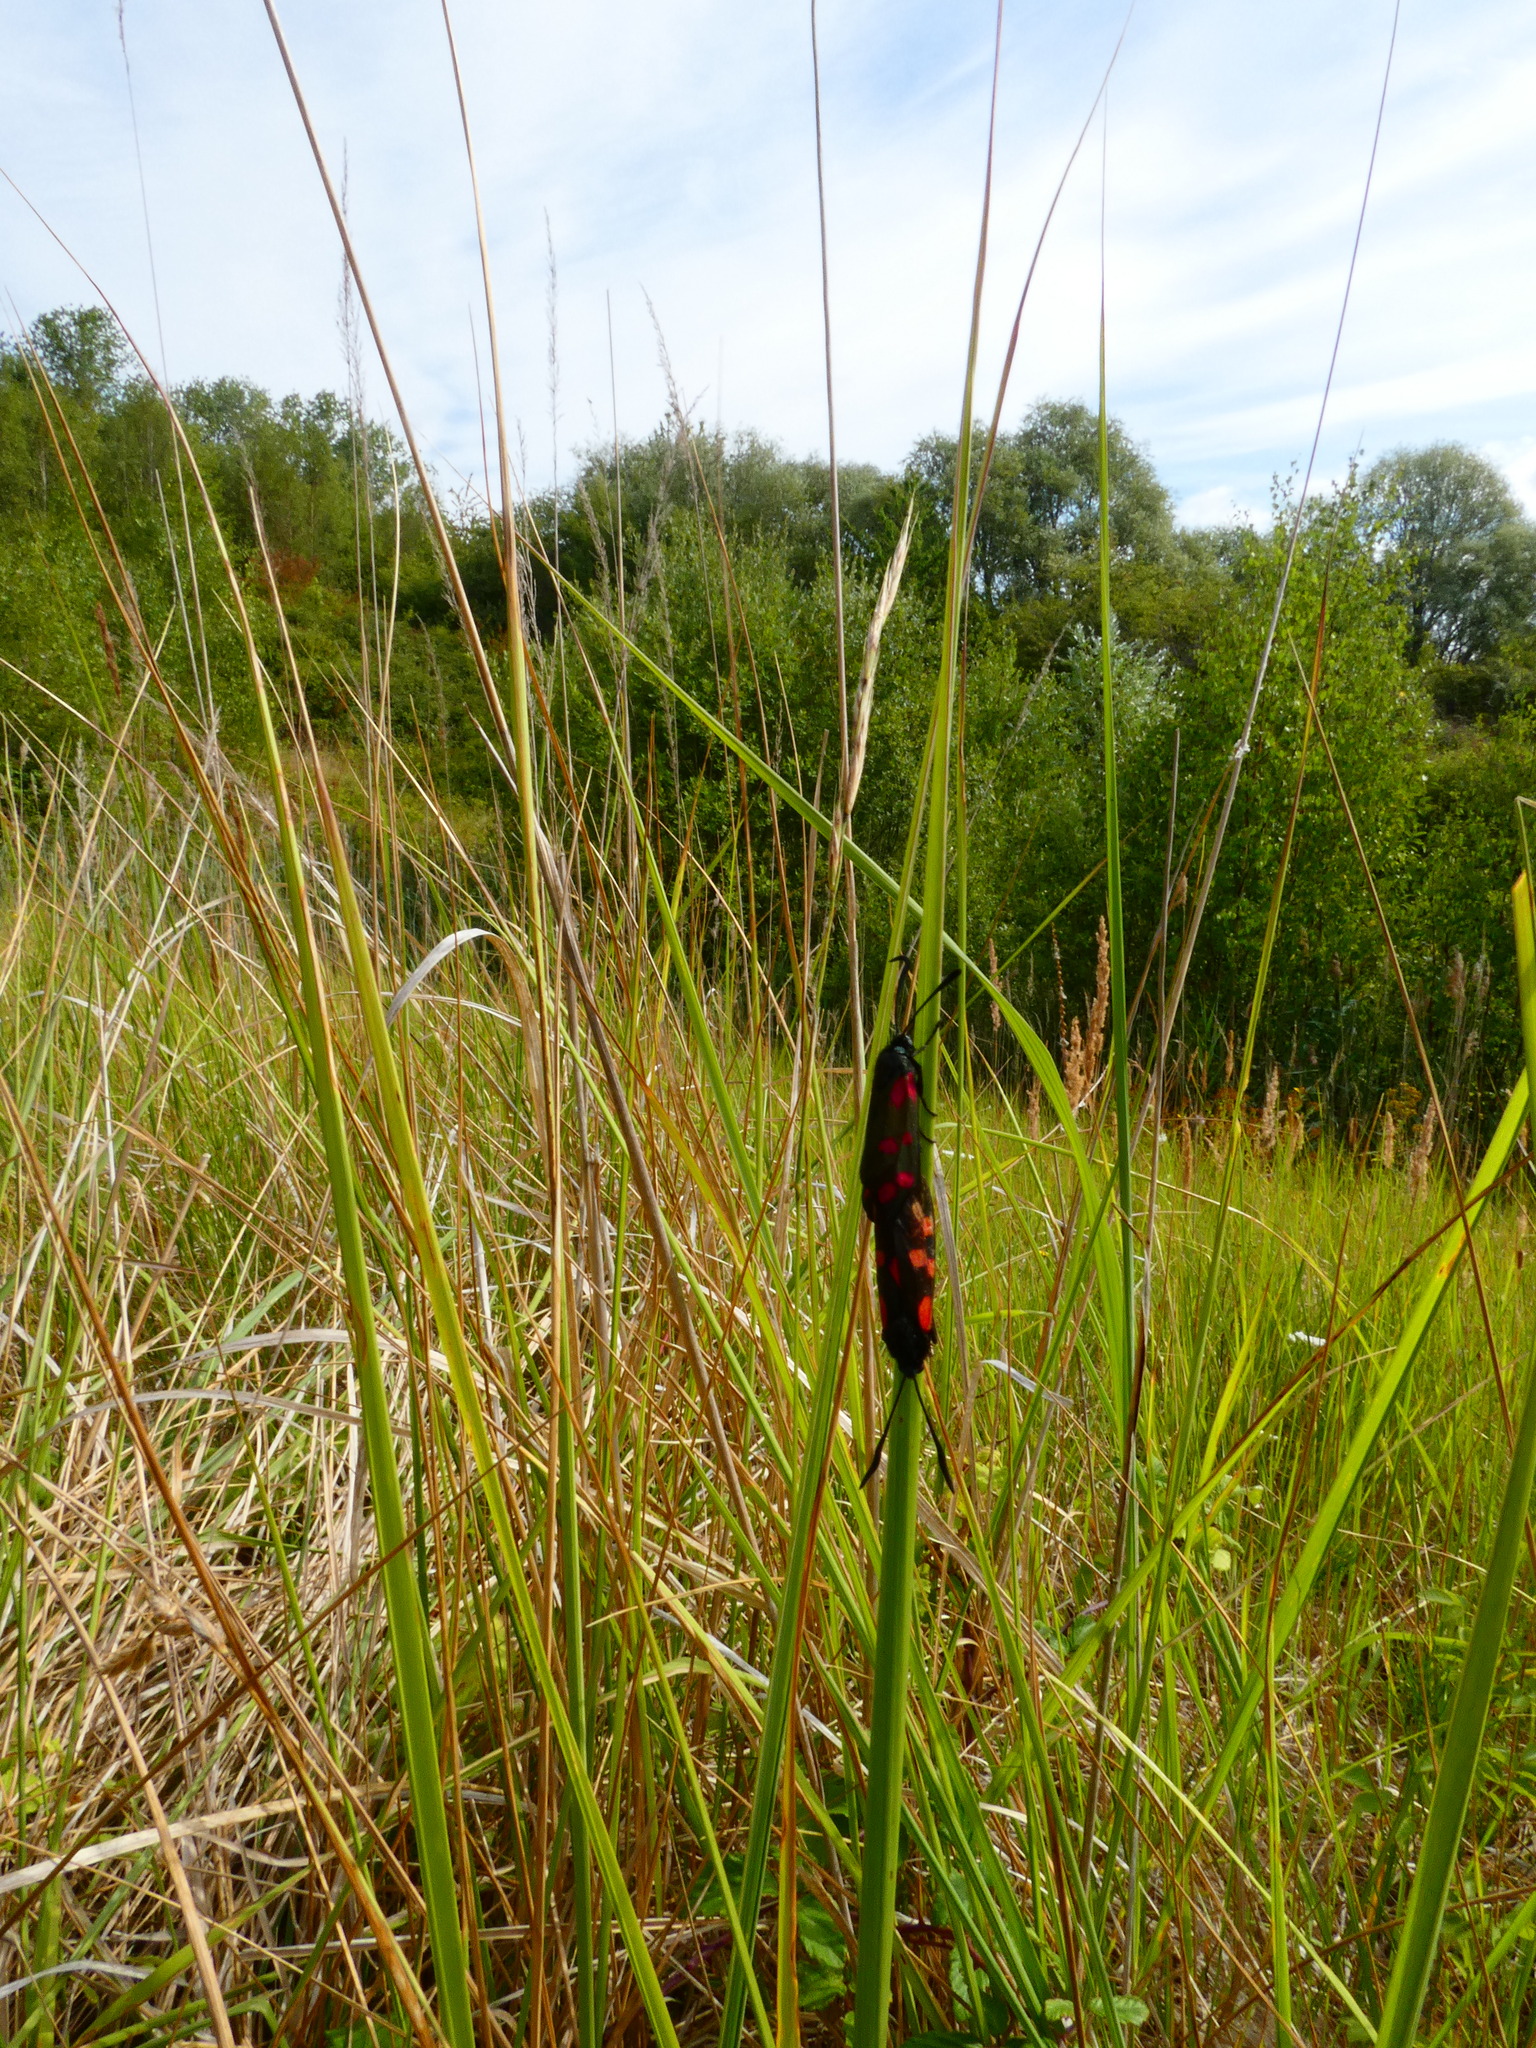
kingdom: Animalia
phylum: Arthropoda
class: Insecta
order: Lepidoptera
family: Zygaenidae
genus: Zygaena
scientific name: Zygaena filipendulae
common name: Six-spot burnet
